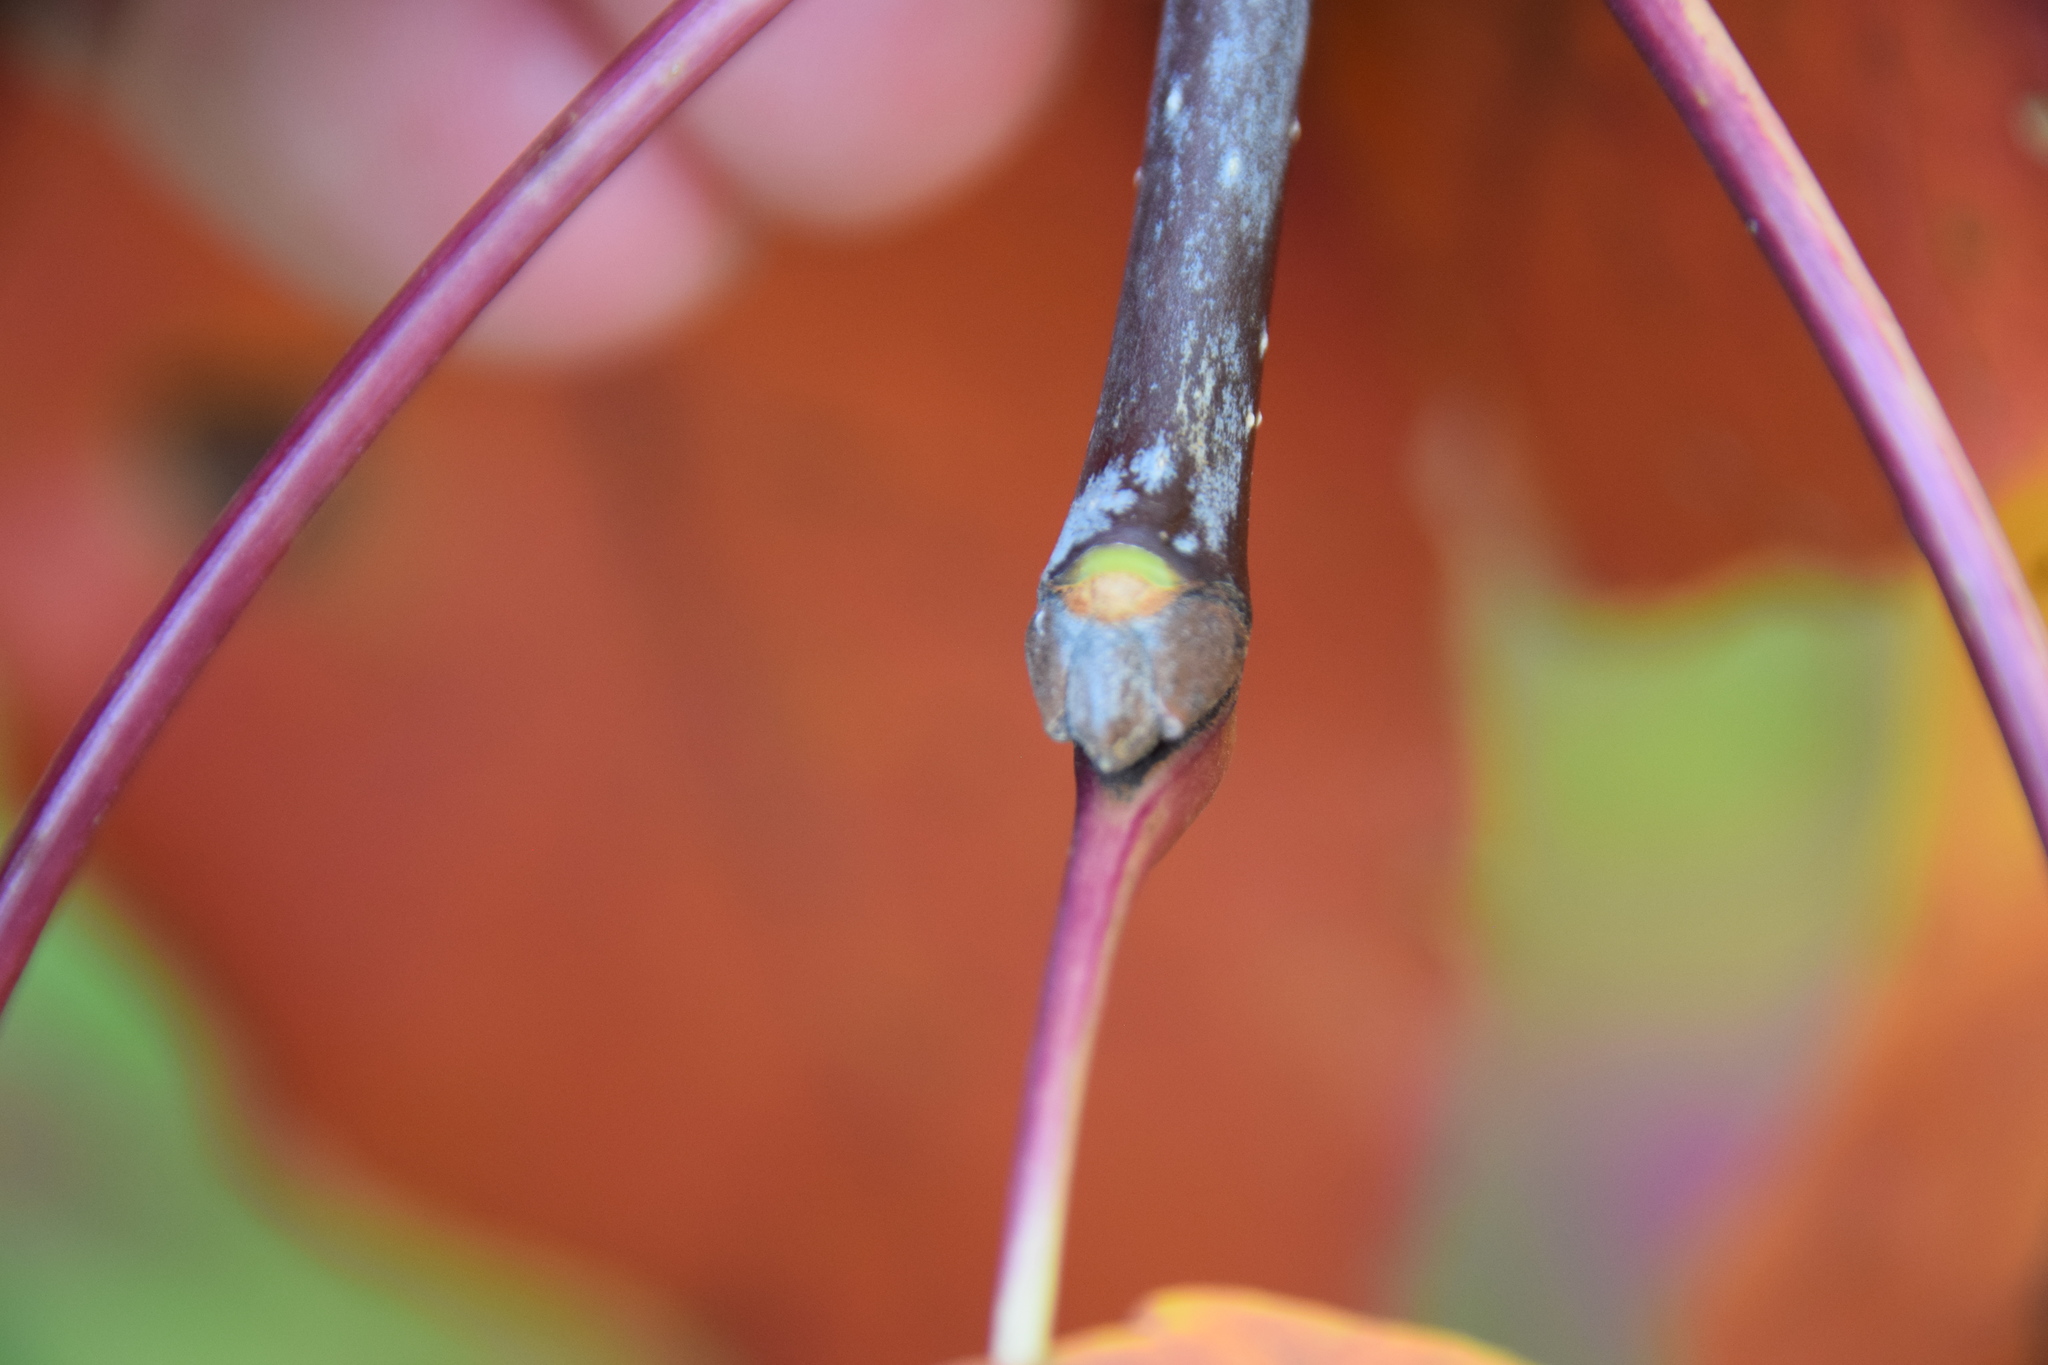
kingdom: Plantae
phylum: Tracheophyta
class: Magnoliopsida
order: Lamiales
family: Oleaceae
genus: Fraxinus
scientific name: Fraxinus americana
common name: White ash
